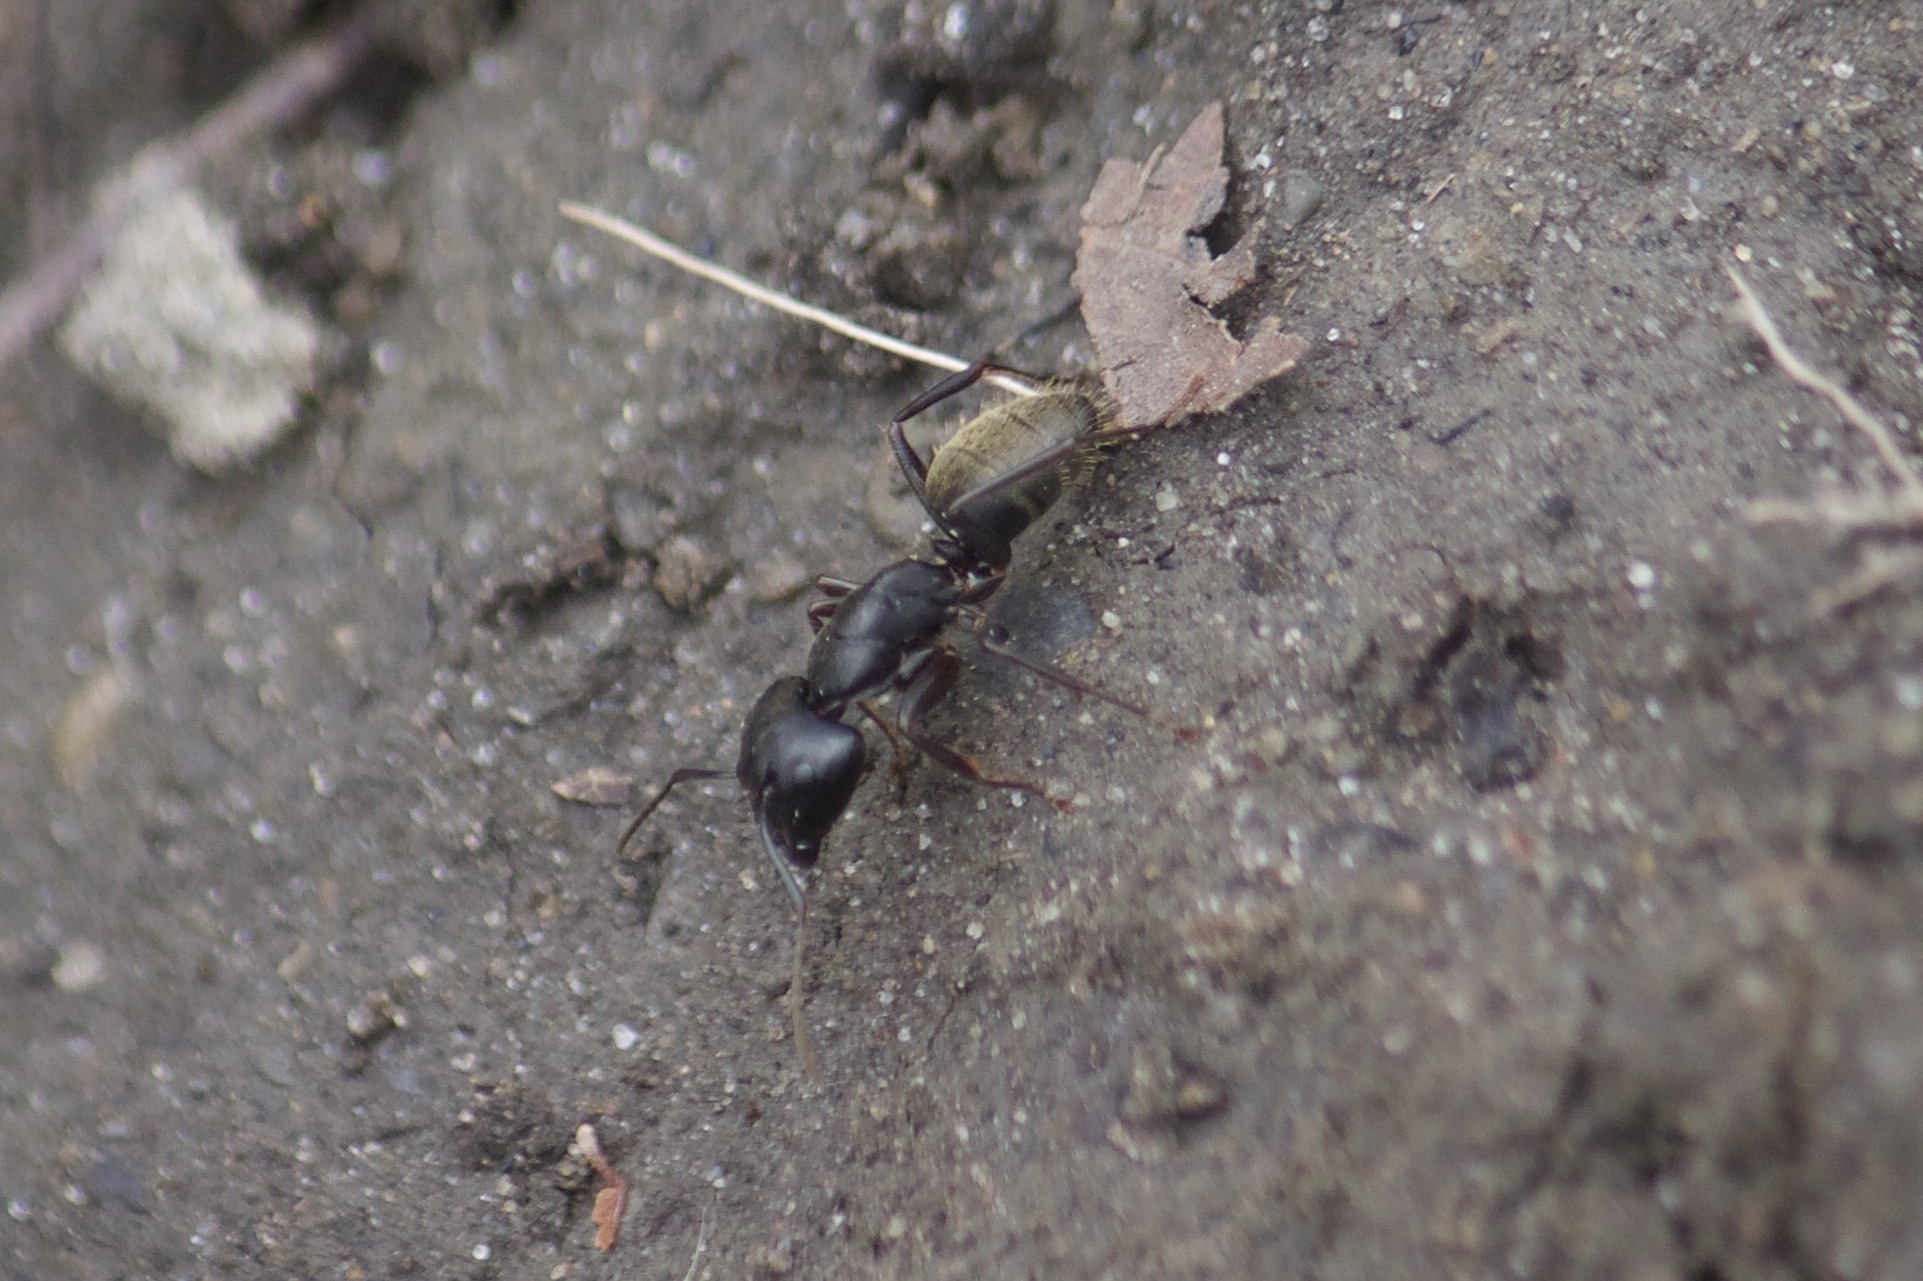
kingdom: Animalia
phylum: Arthropoda
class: Insecta
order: Hymenoptera
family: Formicidae
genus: Camponotus
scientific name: Camponotus pennsylvanicus
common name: Black carpenter ant
